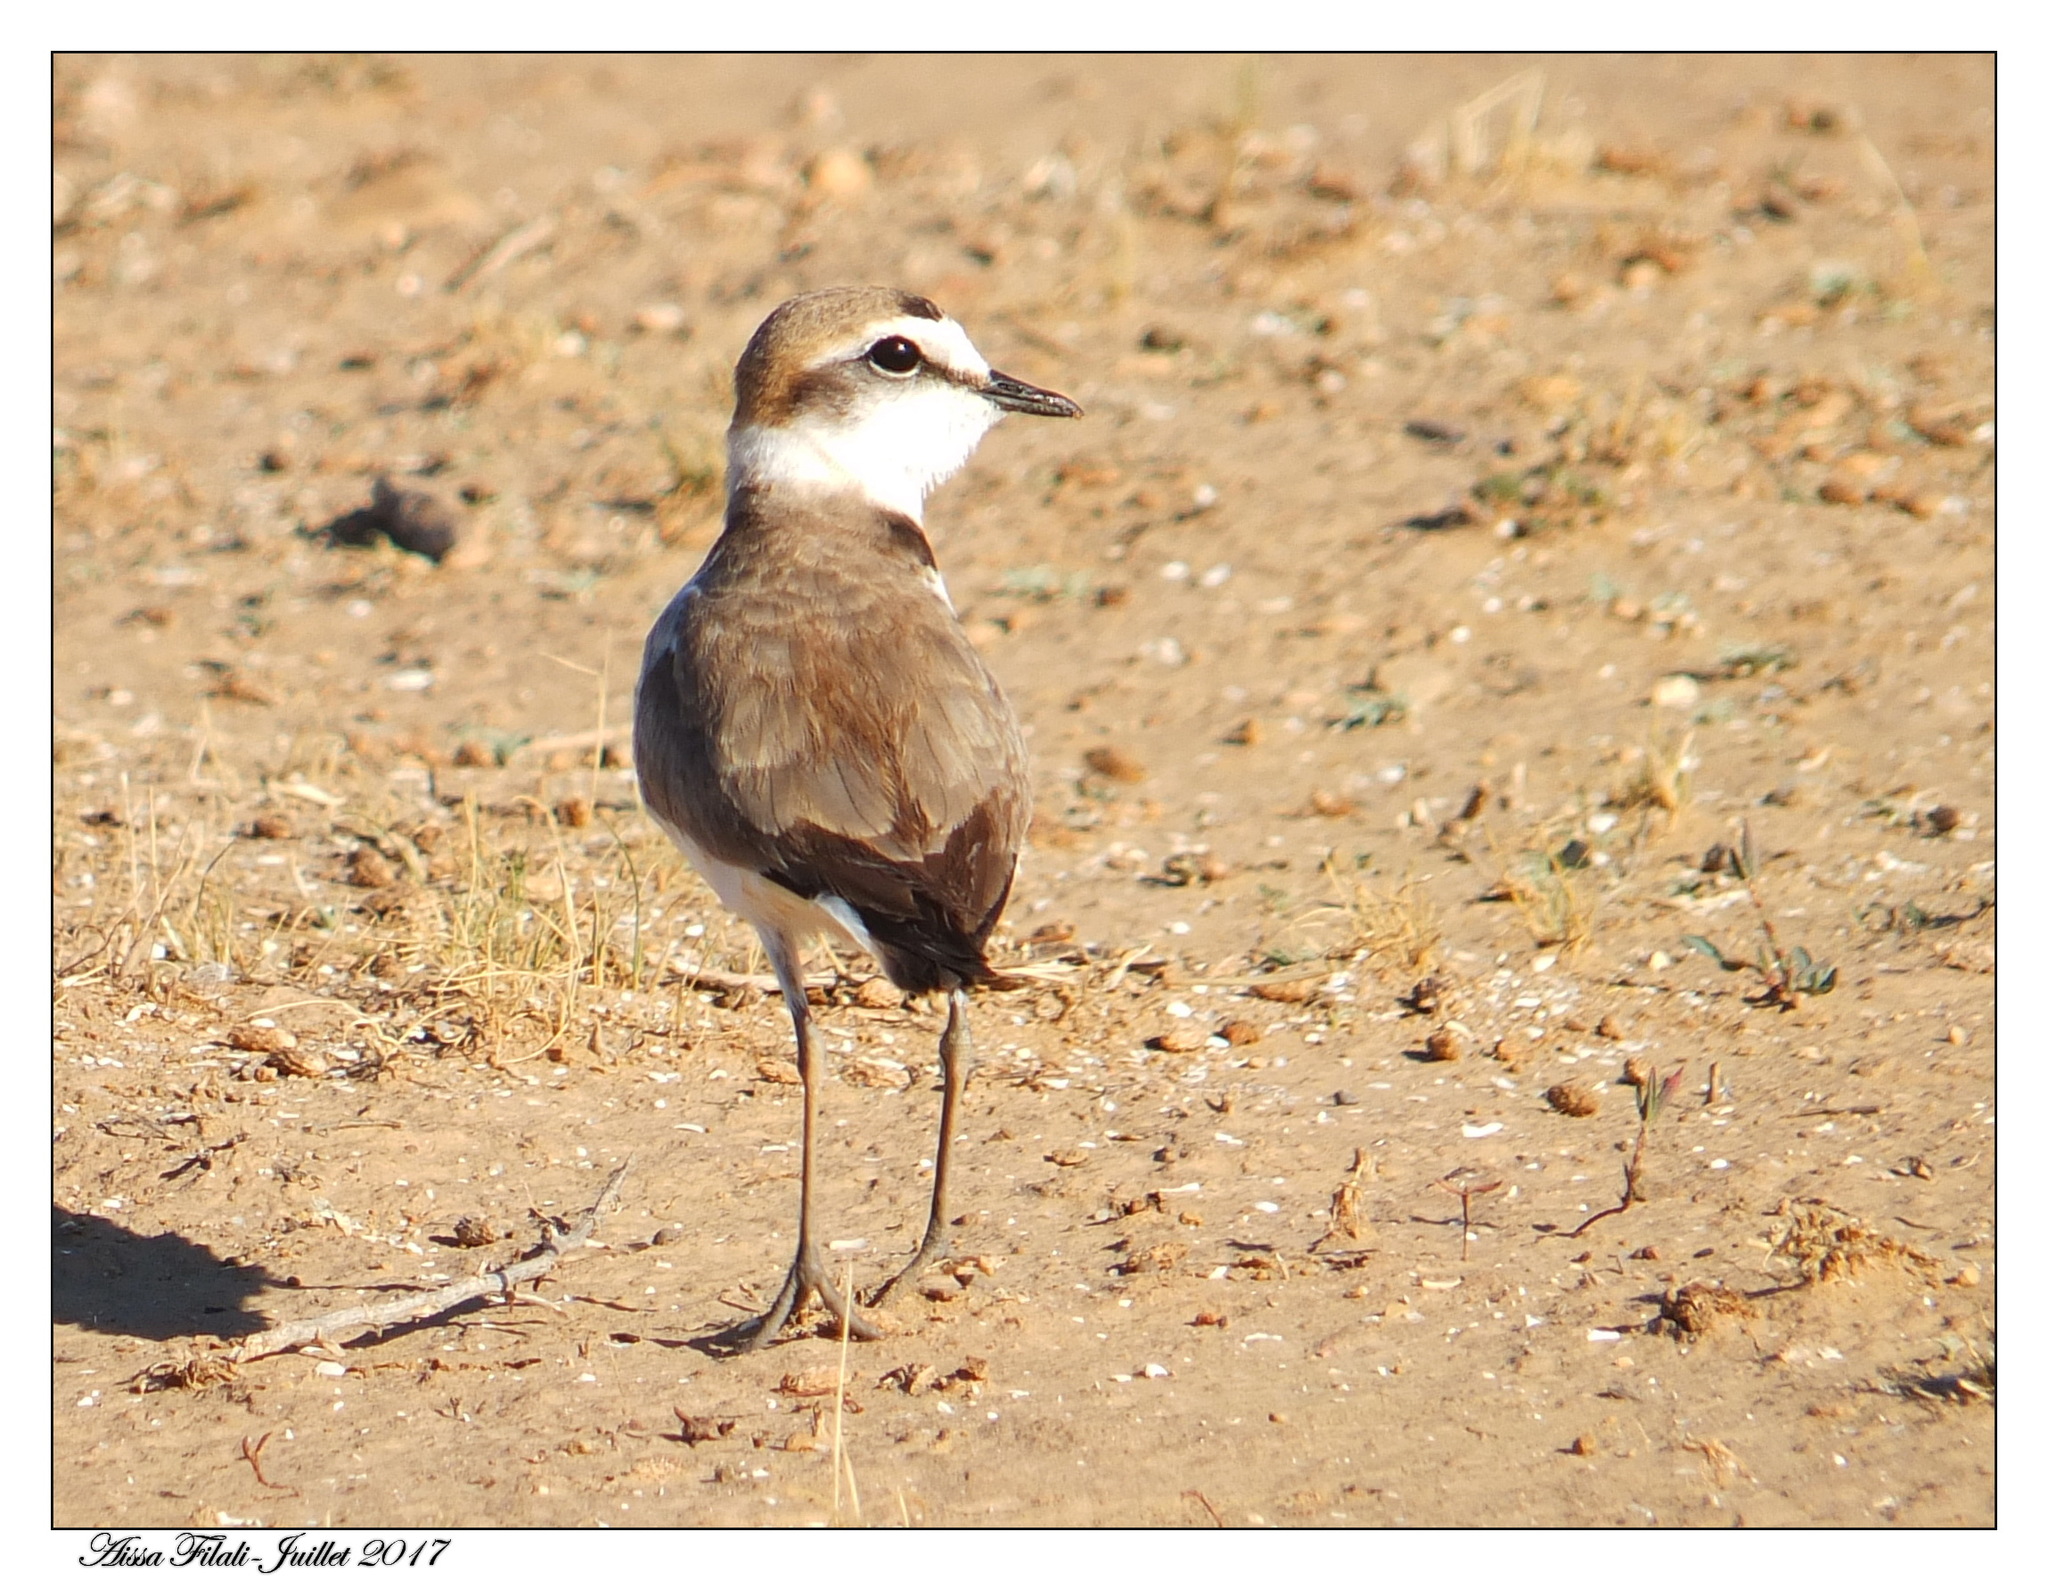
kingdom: Animalia
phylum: Chordata
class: Aves
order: Charadriiformes
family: Charadriidae
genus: Charadrius
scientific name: Charadrius alexandrinus
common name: Kentish plover
